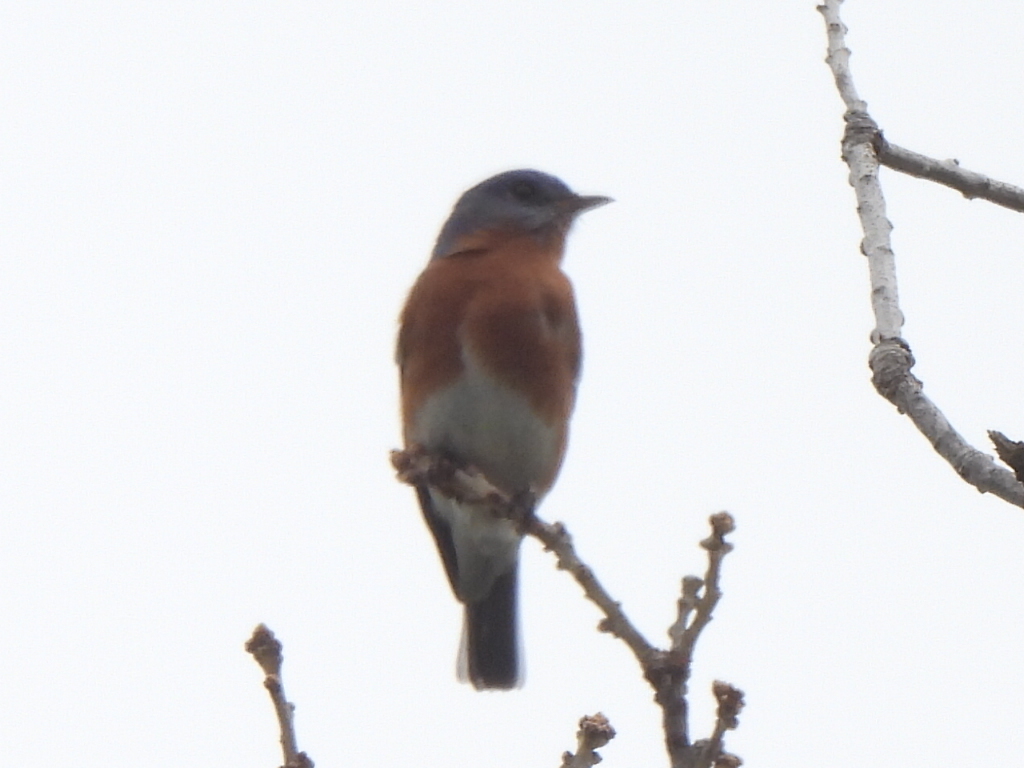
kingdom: Animalia
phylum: Chordata
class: Aves
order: Passeriformes
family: Turdidae
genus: Sialia
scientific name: Sialia sialis
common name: Eastern bluebird
